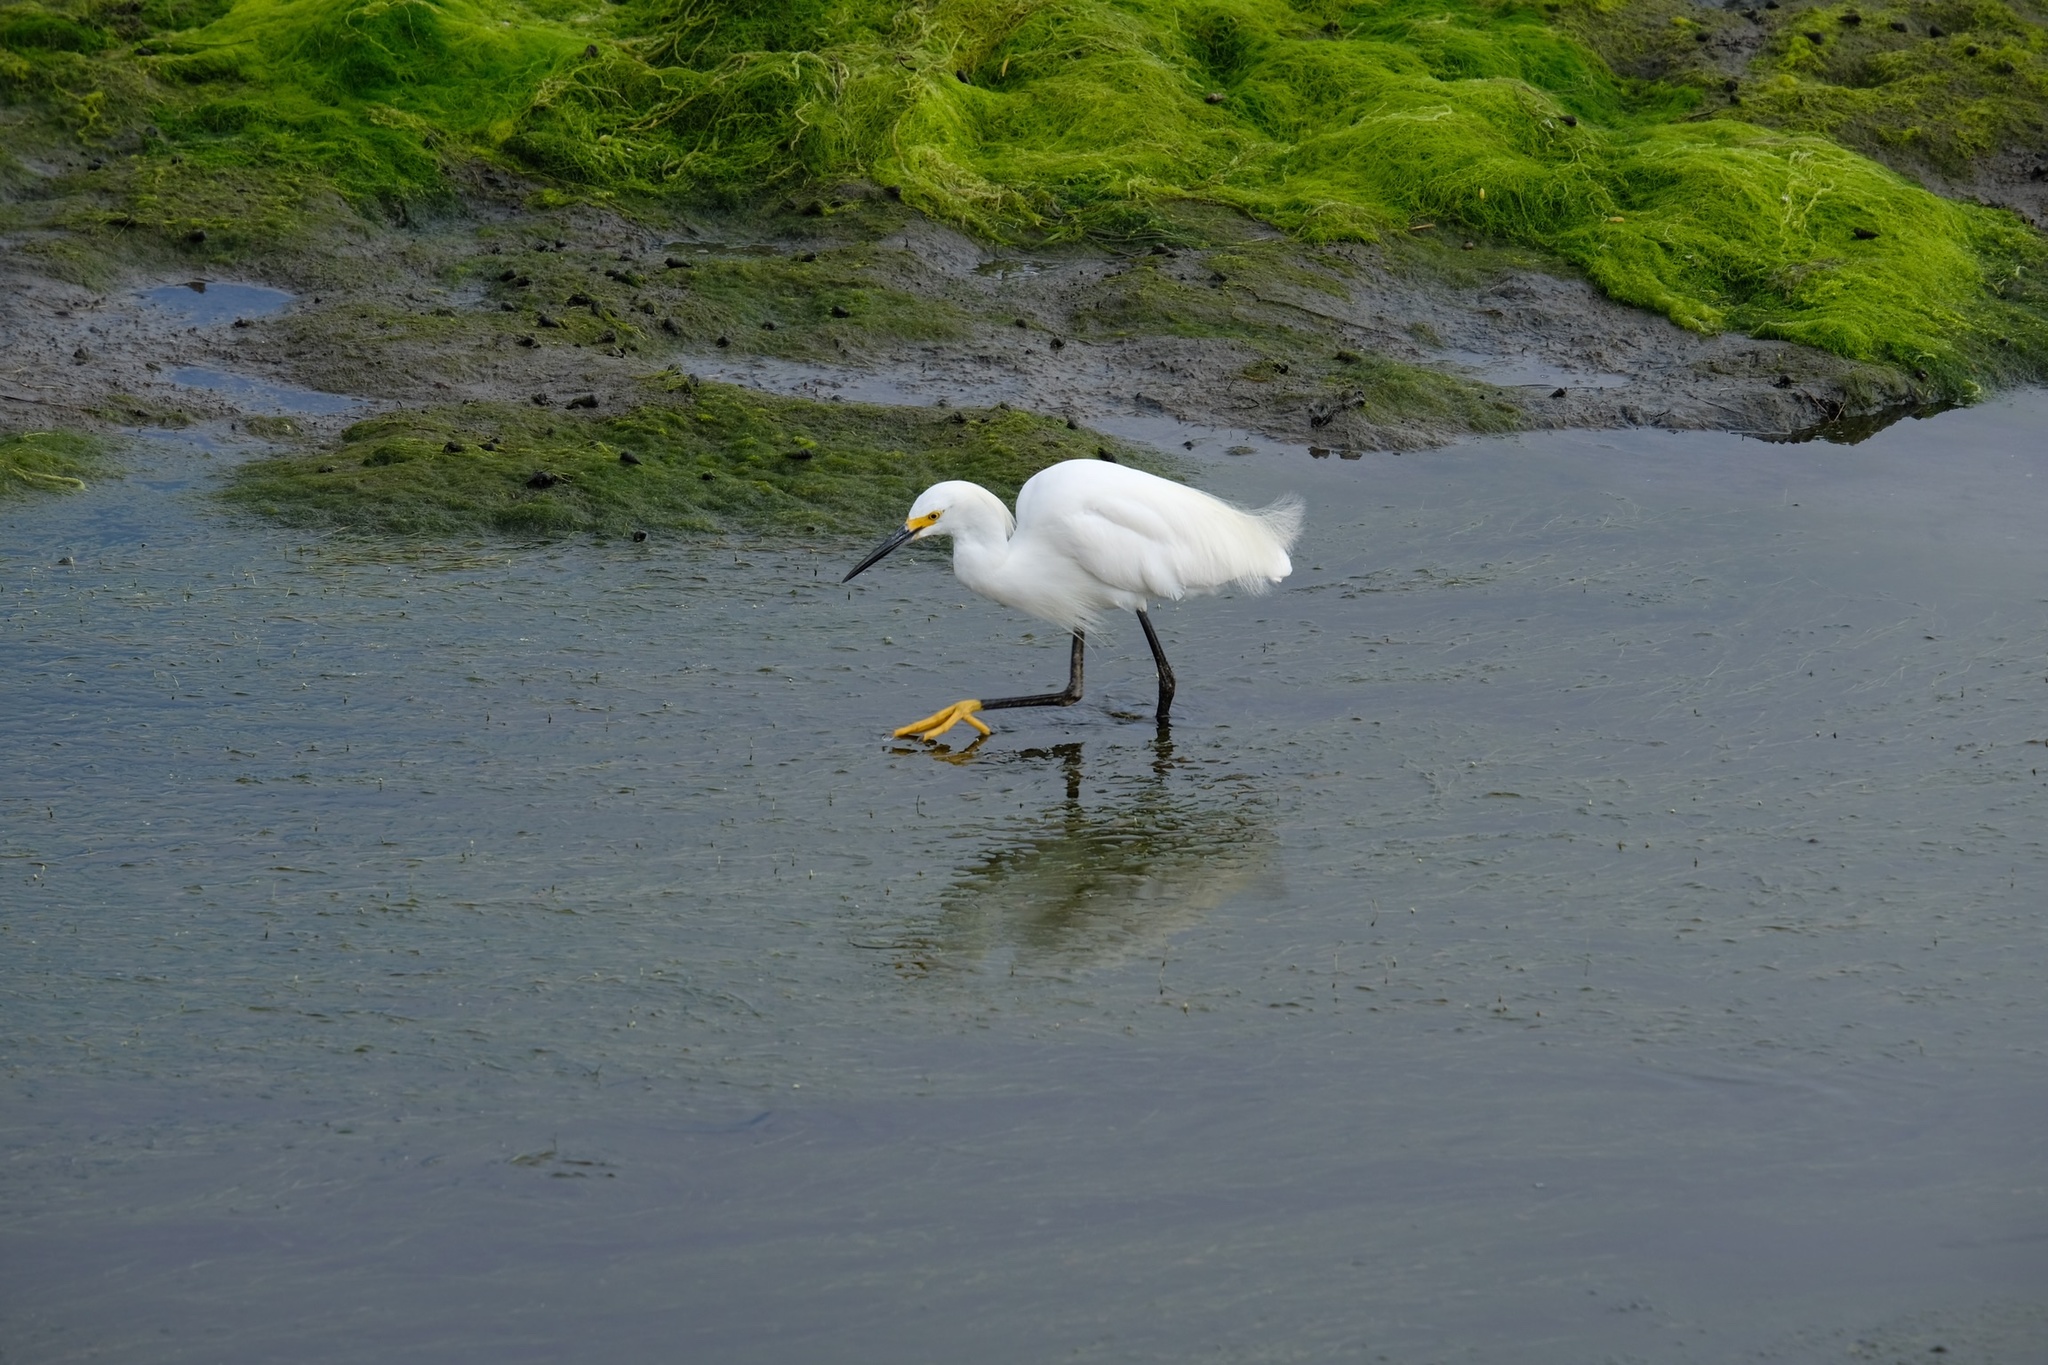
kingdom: Animalia
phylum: Chordata
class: Aves
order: Pelecaniformes
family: Ardeidae
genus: Egretta
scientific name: Egretta thula
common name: Snowy egret
